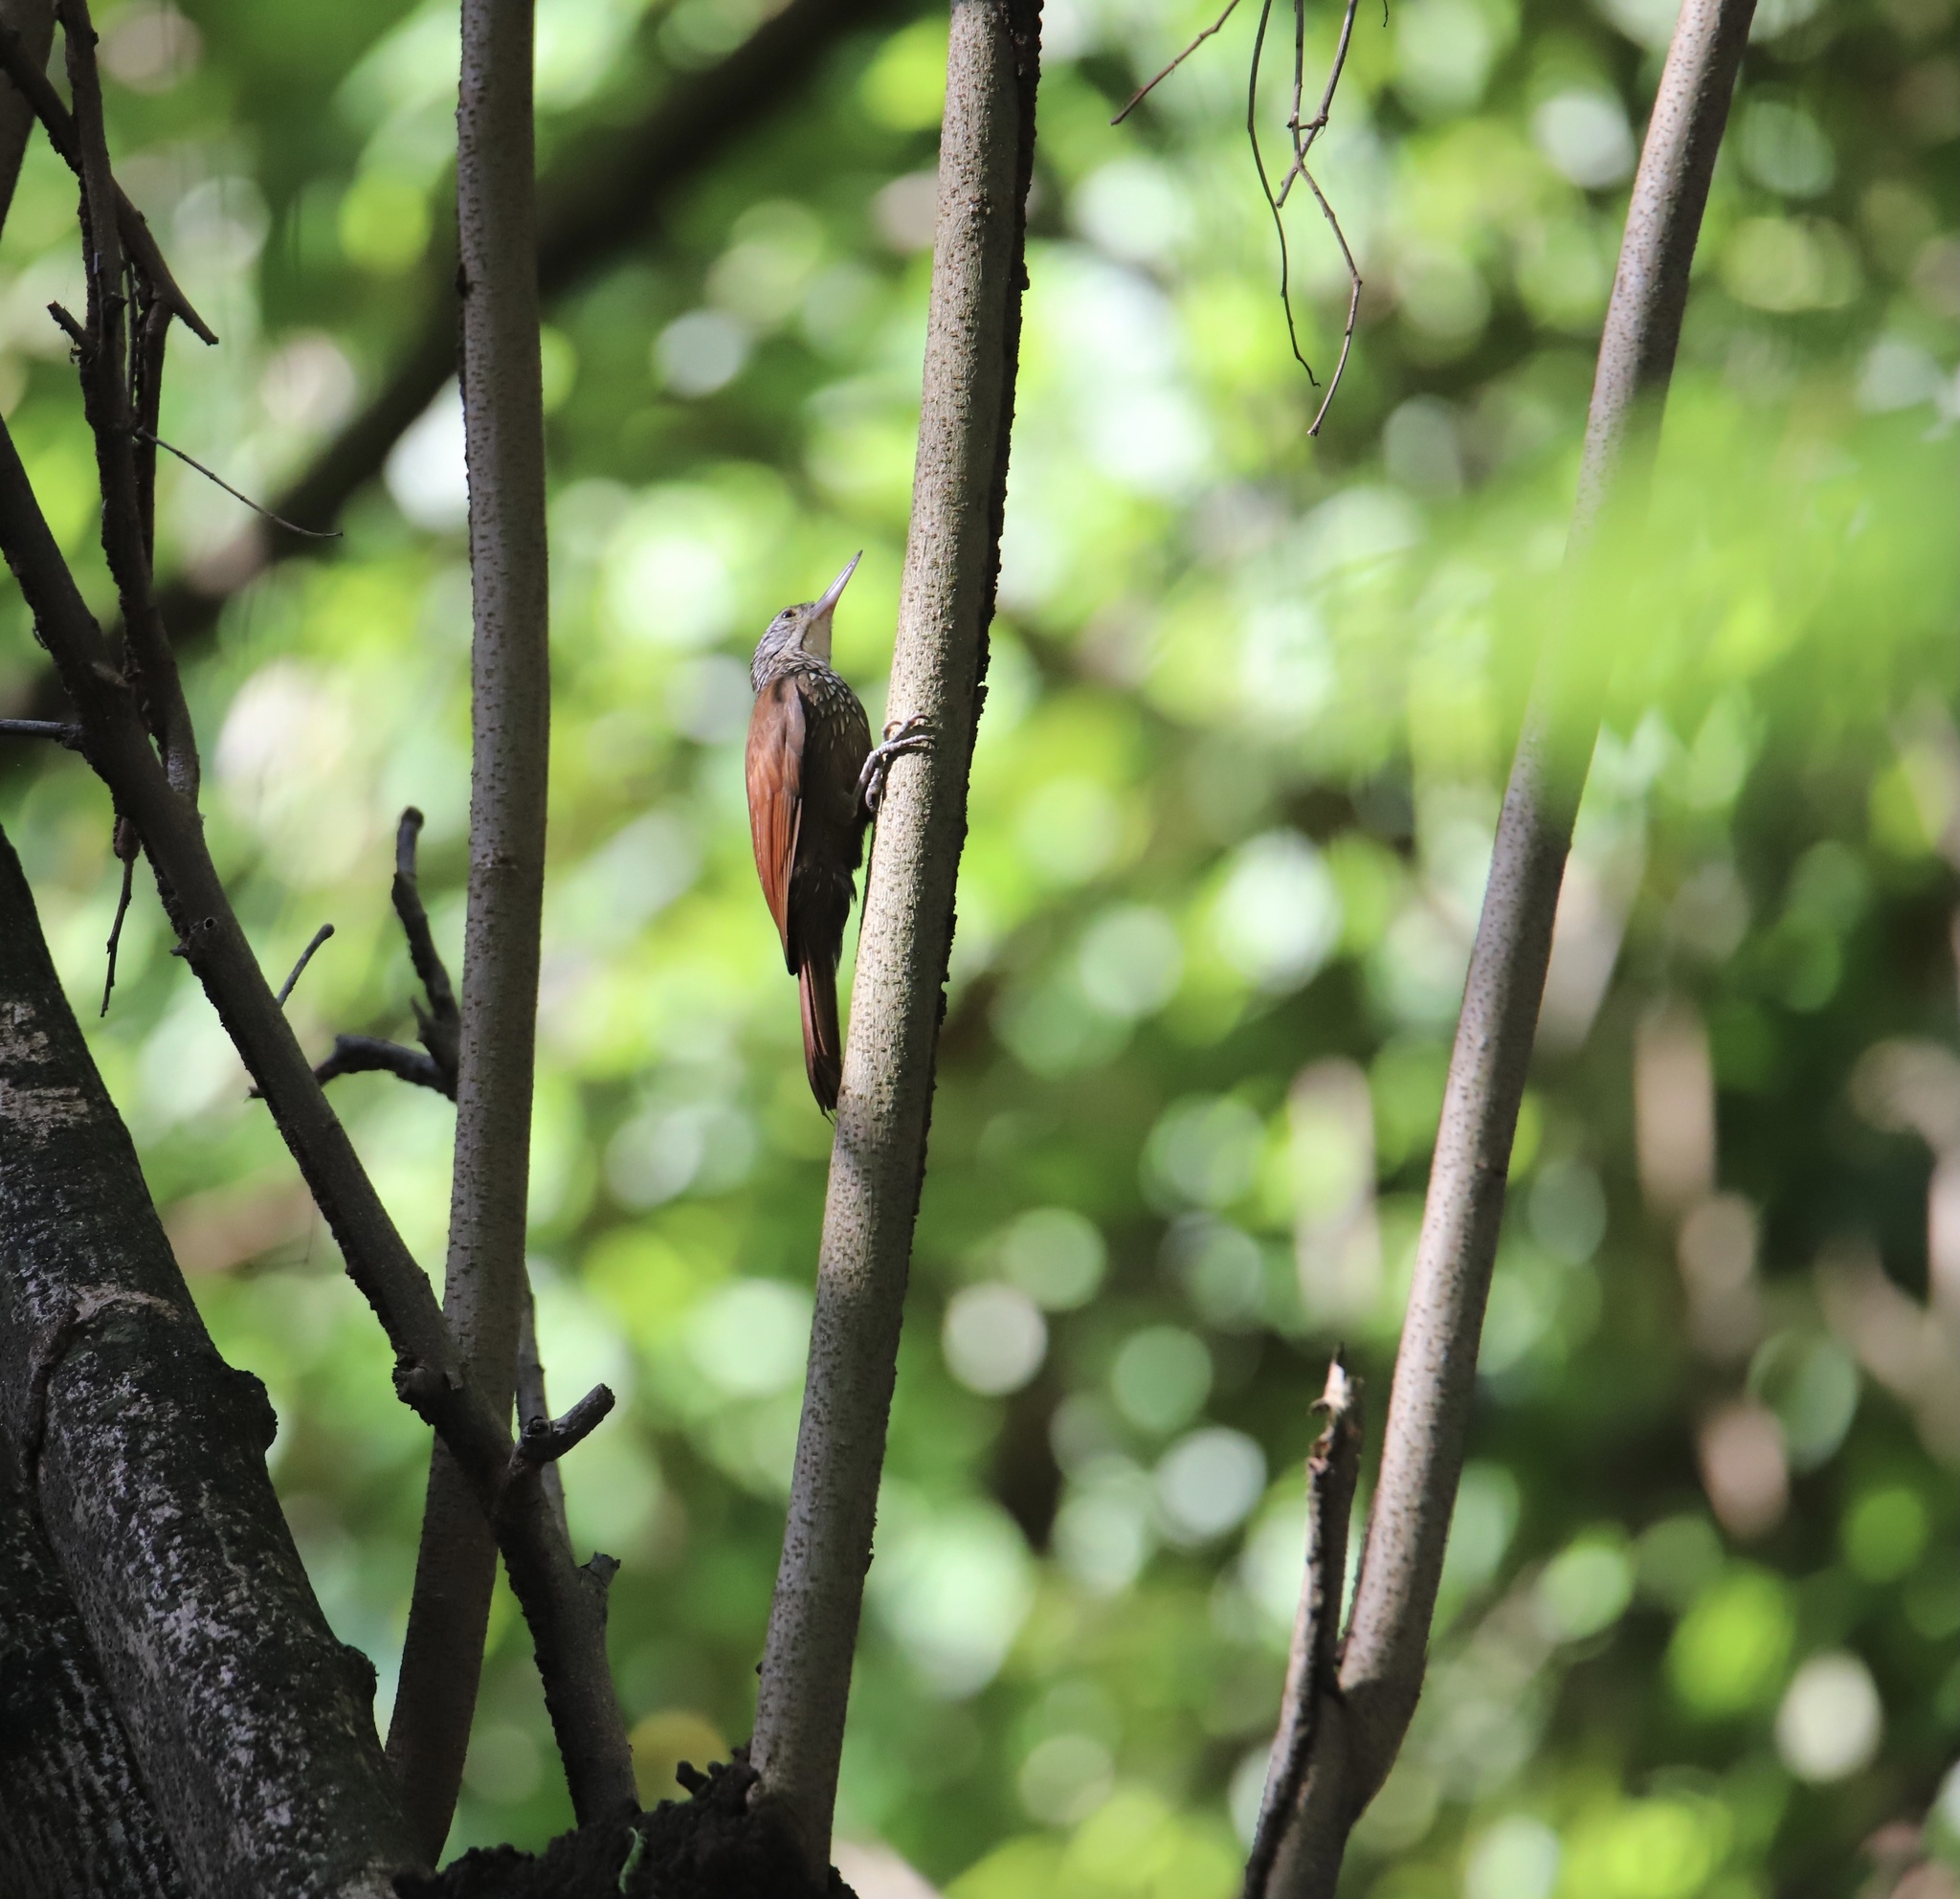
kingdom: Animalia
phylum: Chordata
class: Aves
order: Passeriformes
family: Furnariidae
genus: Xiphorhynchus
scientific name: Xiphorhynchus picus
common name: Straight-billed woodcreeper
